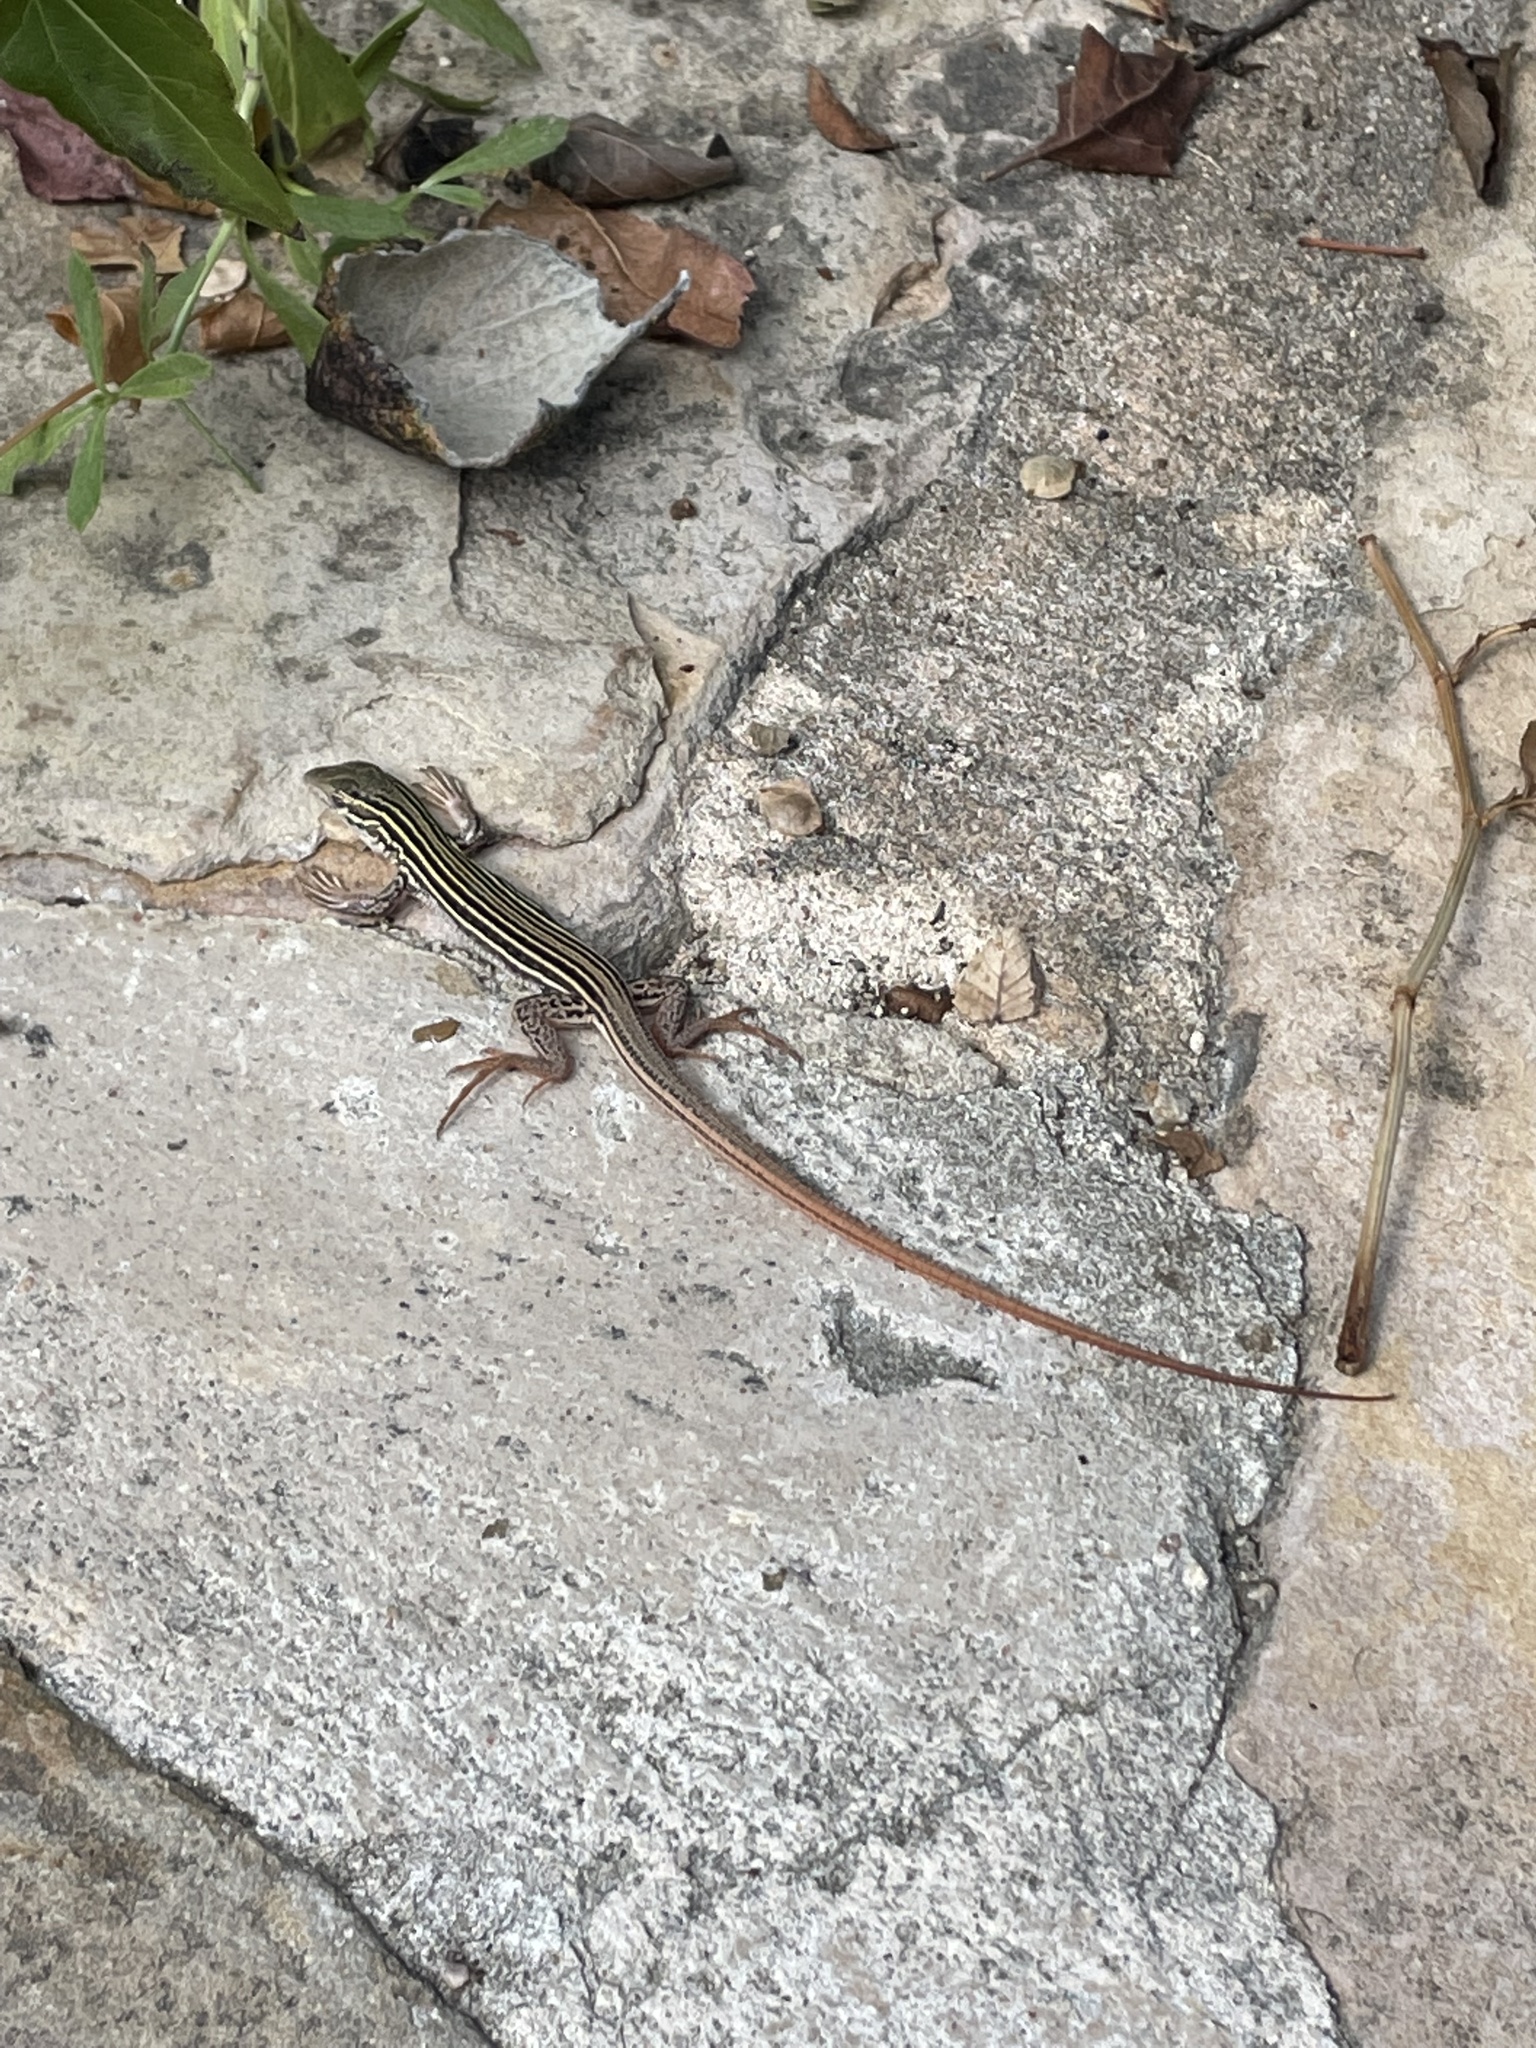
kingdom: Animalia
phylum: Chordata
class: Squamata
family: Teiidae
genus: Aspidoscelis
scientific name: Aspidoscelis gularis
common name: Eastern spotted whiptail
